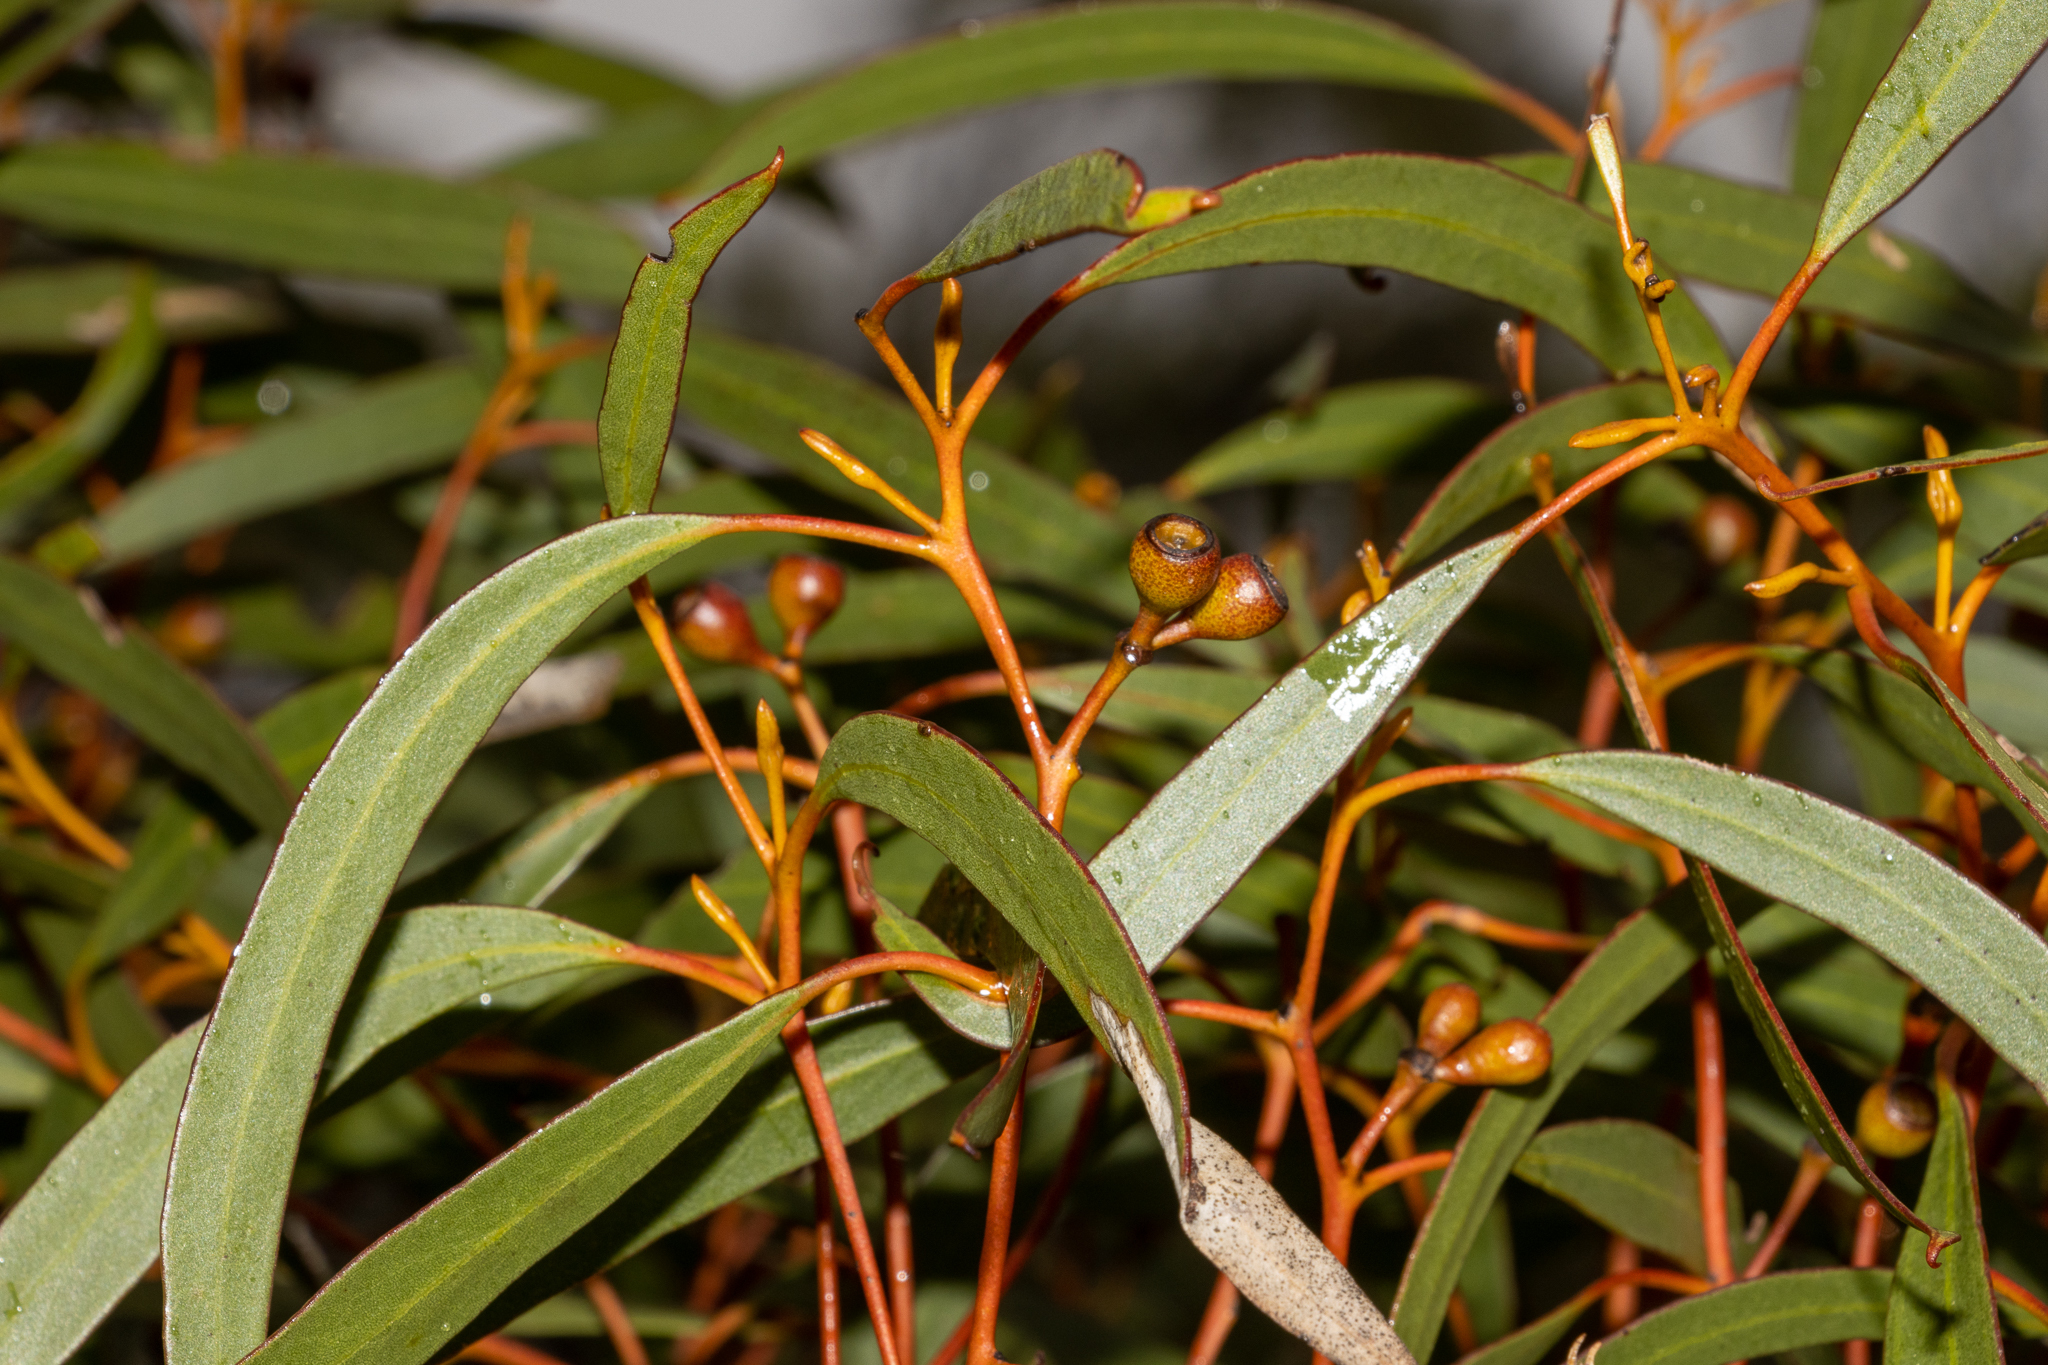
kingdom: Plantae
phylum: Tracheophyta
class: Magnoliopsida
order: Myrtales
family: Myrtaceae
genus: Eucalyptus
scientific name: Eucalyptus gracilis
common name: White mallee
